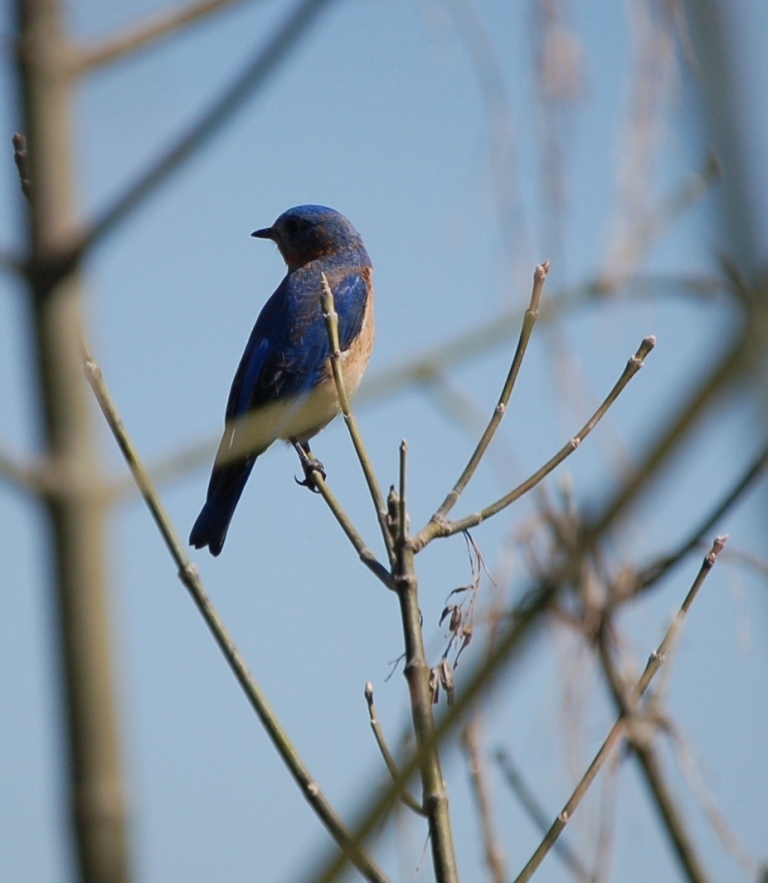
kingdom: Animalia
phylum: Chordata
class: Aves
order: Passeriformes
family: Turdidae
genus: Sialia
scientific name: Sialia sialis
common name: Eastern bluebird
